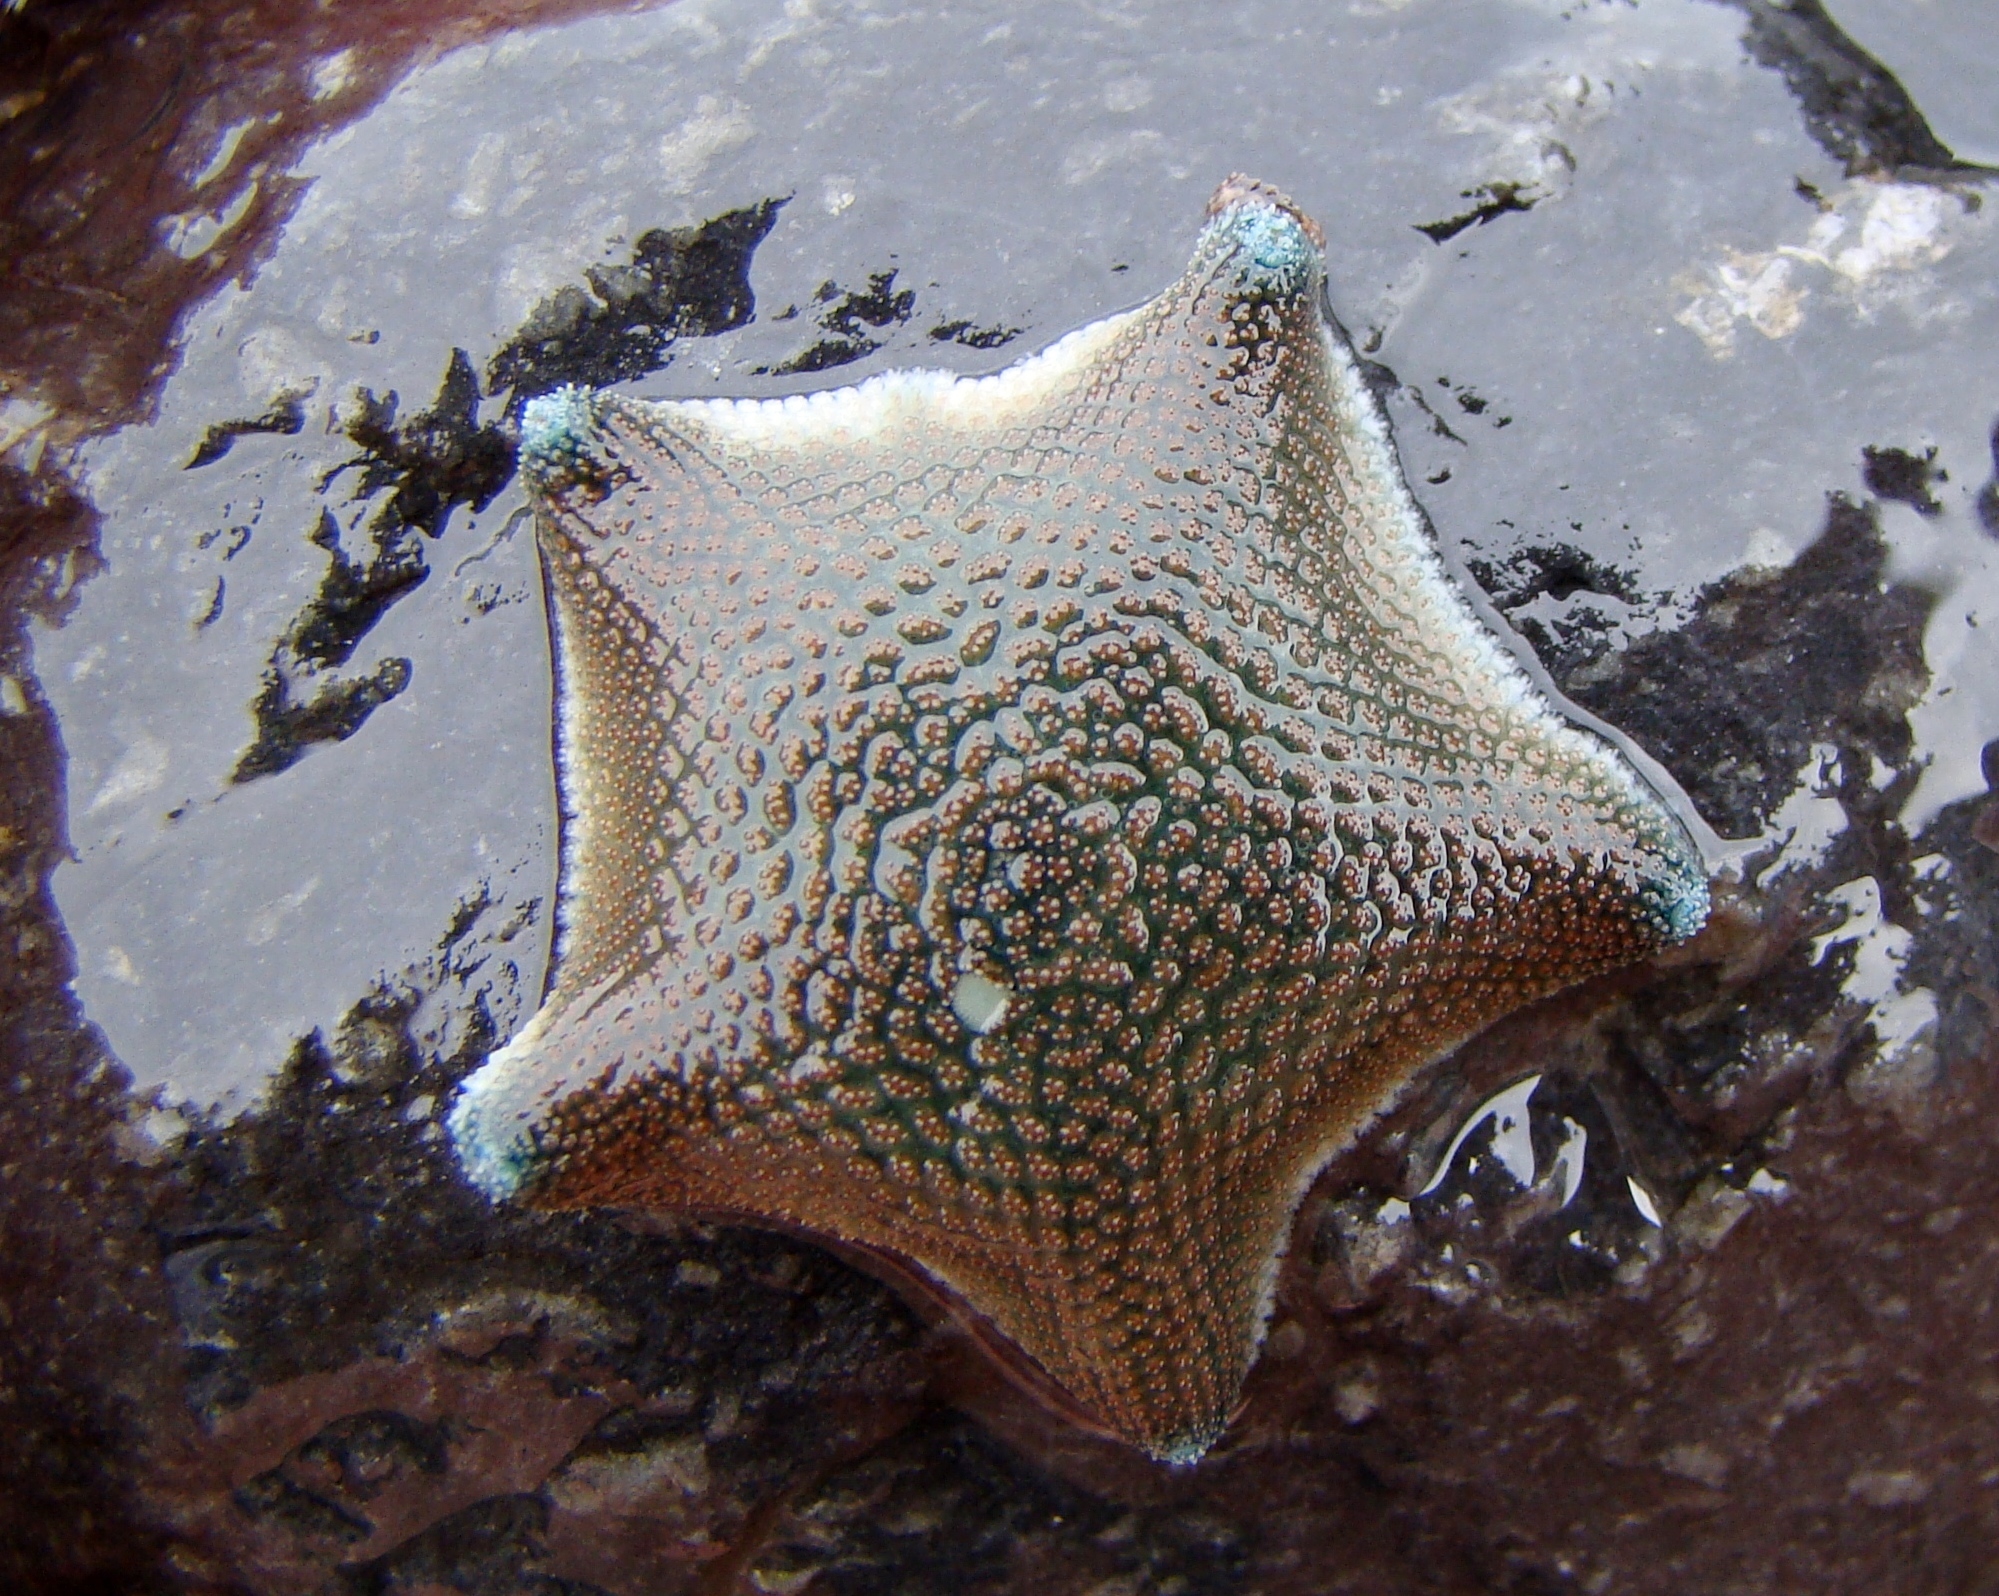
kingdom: Animalia
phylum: Echinodermata
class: Asteroidea
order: Valvatida
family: Asterinidae
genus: Patiriella
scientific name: Patiriella regularis
